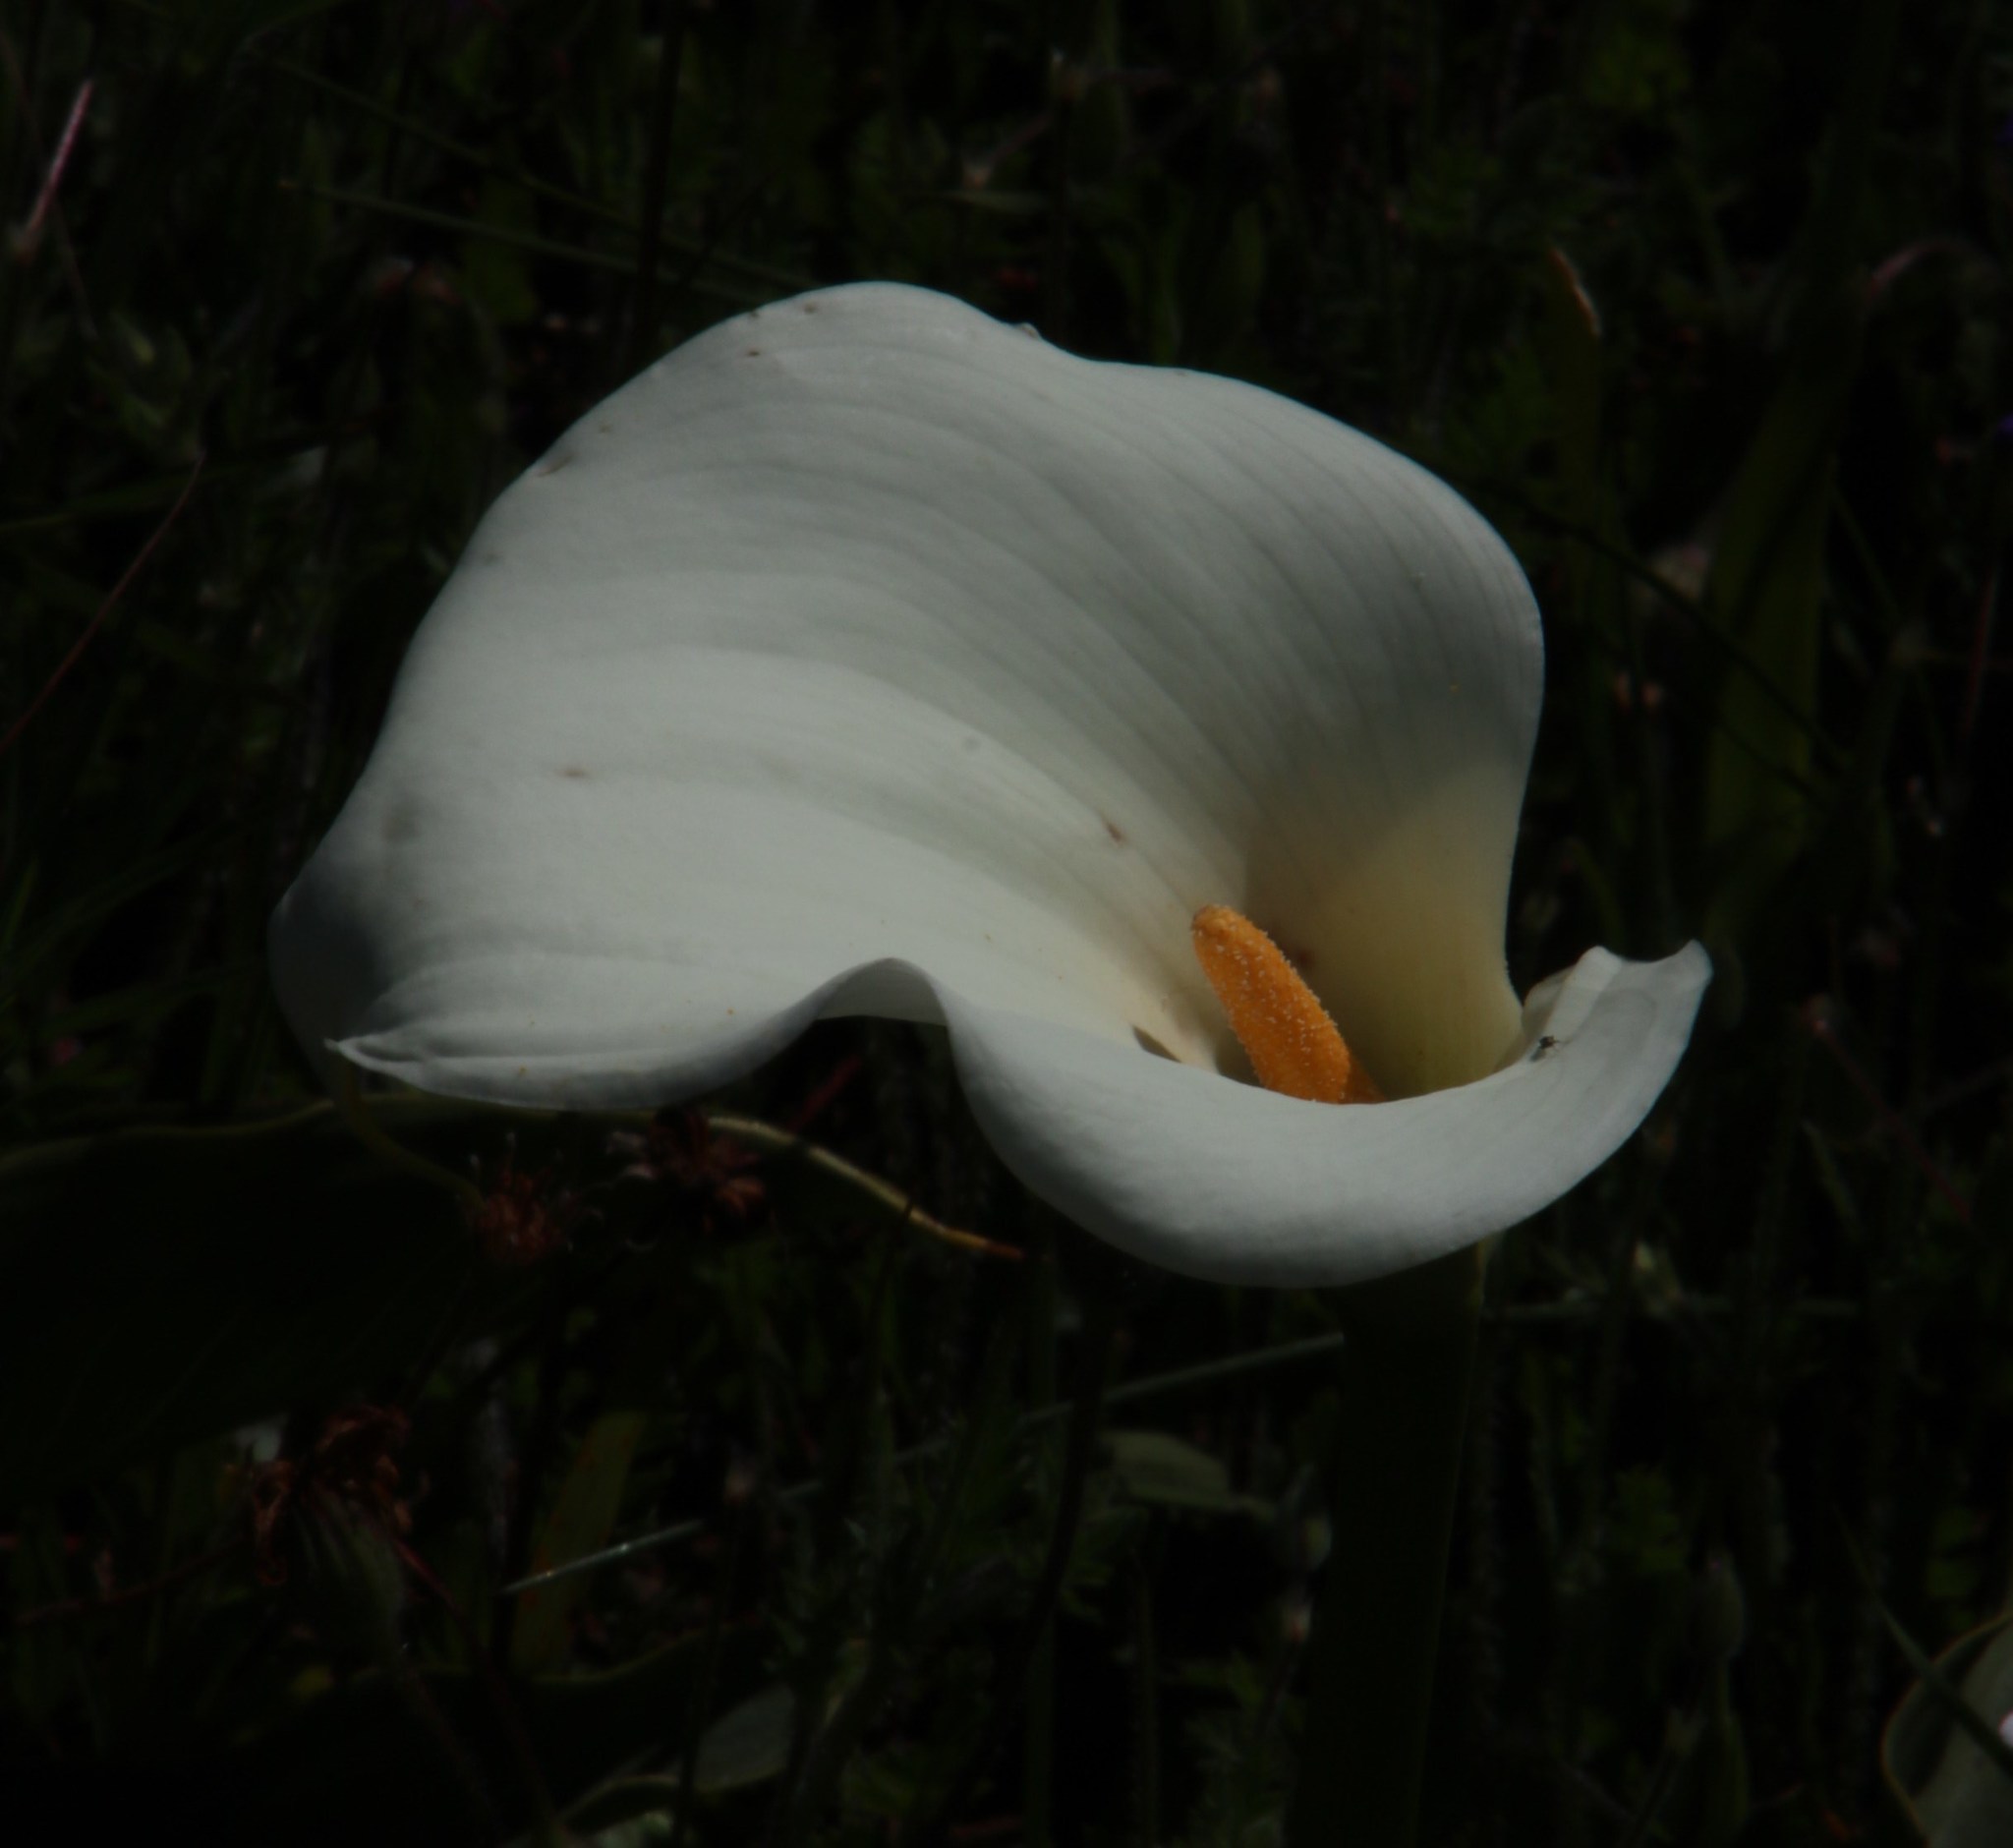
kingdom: Plantae
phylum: Tracheophyta
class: Liliopsida
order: Alismatales
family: Araceae
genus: Zantedeschia
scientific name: Zantedeschia aethiopica
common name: Altar-lily
